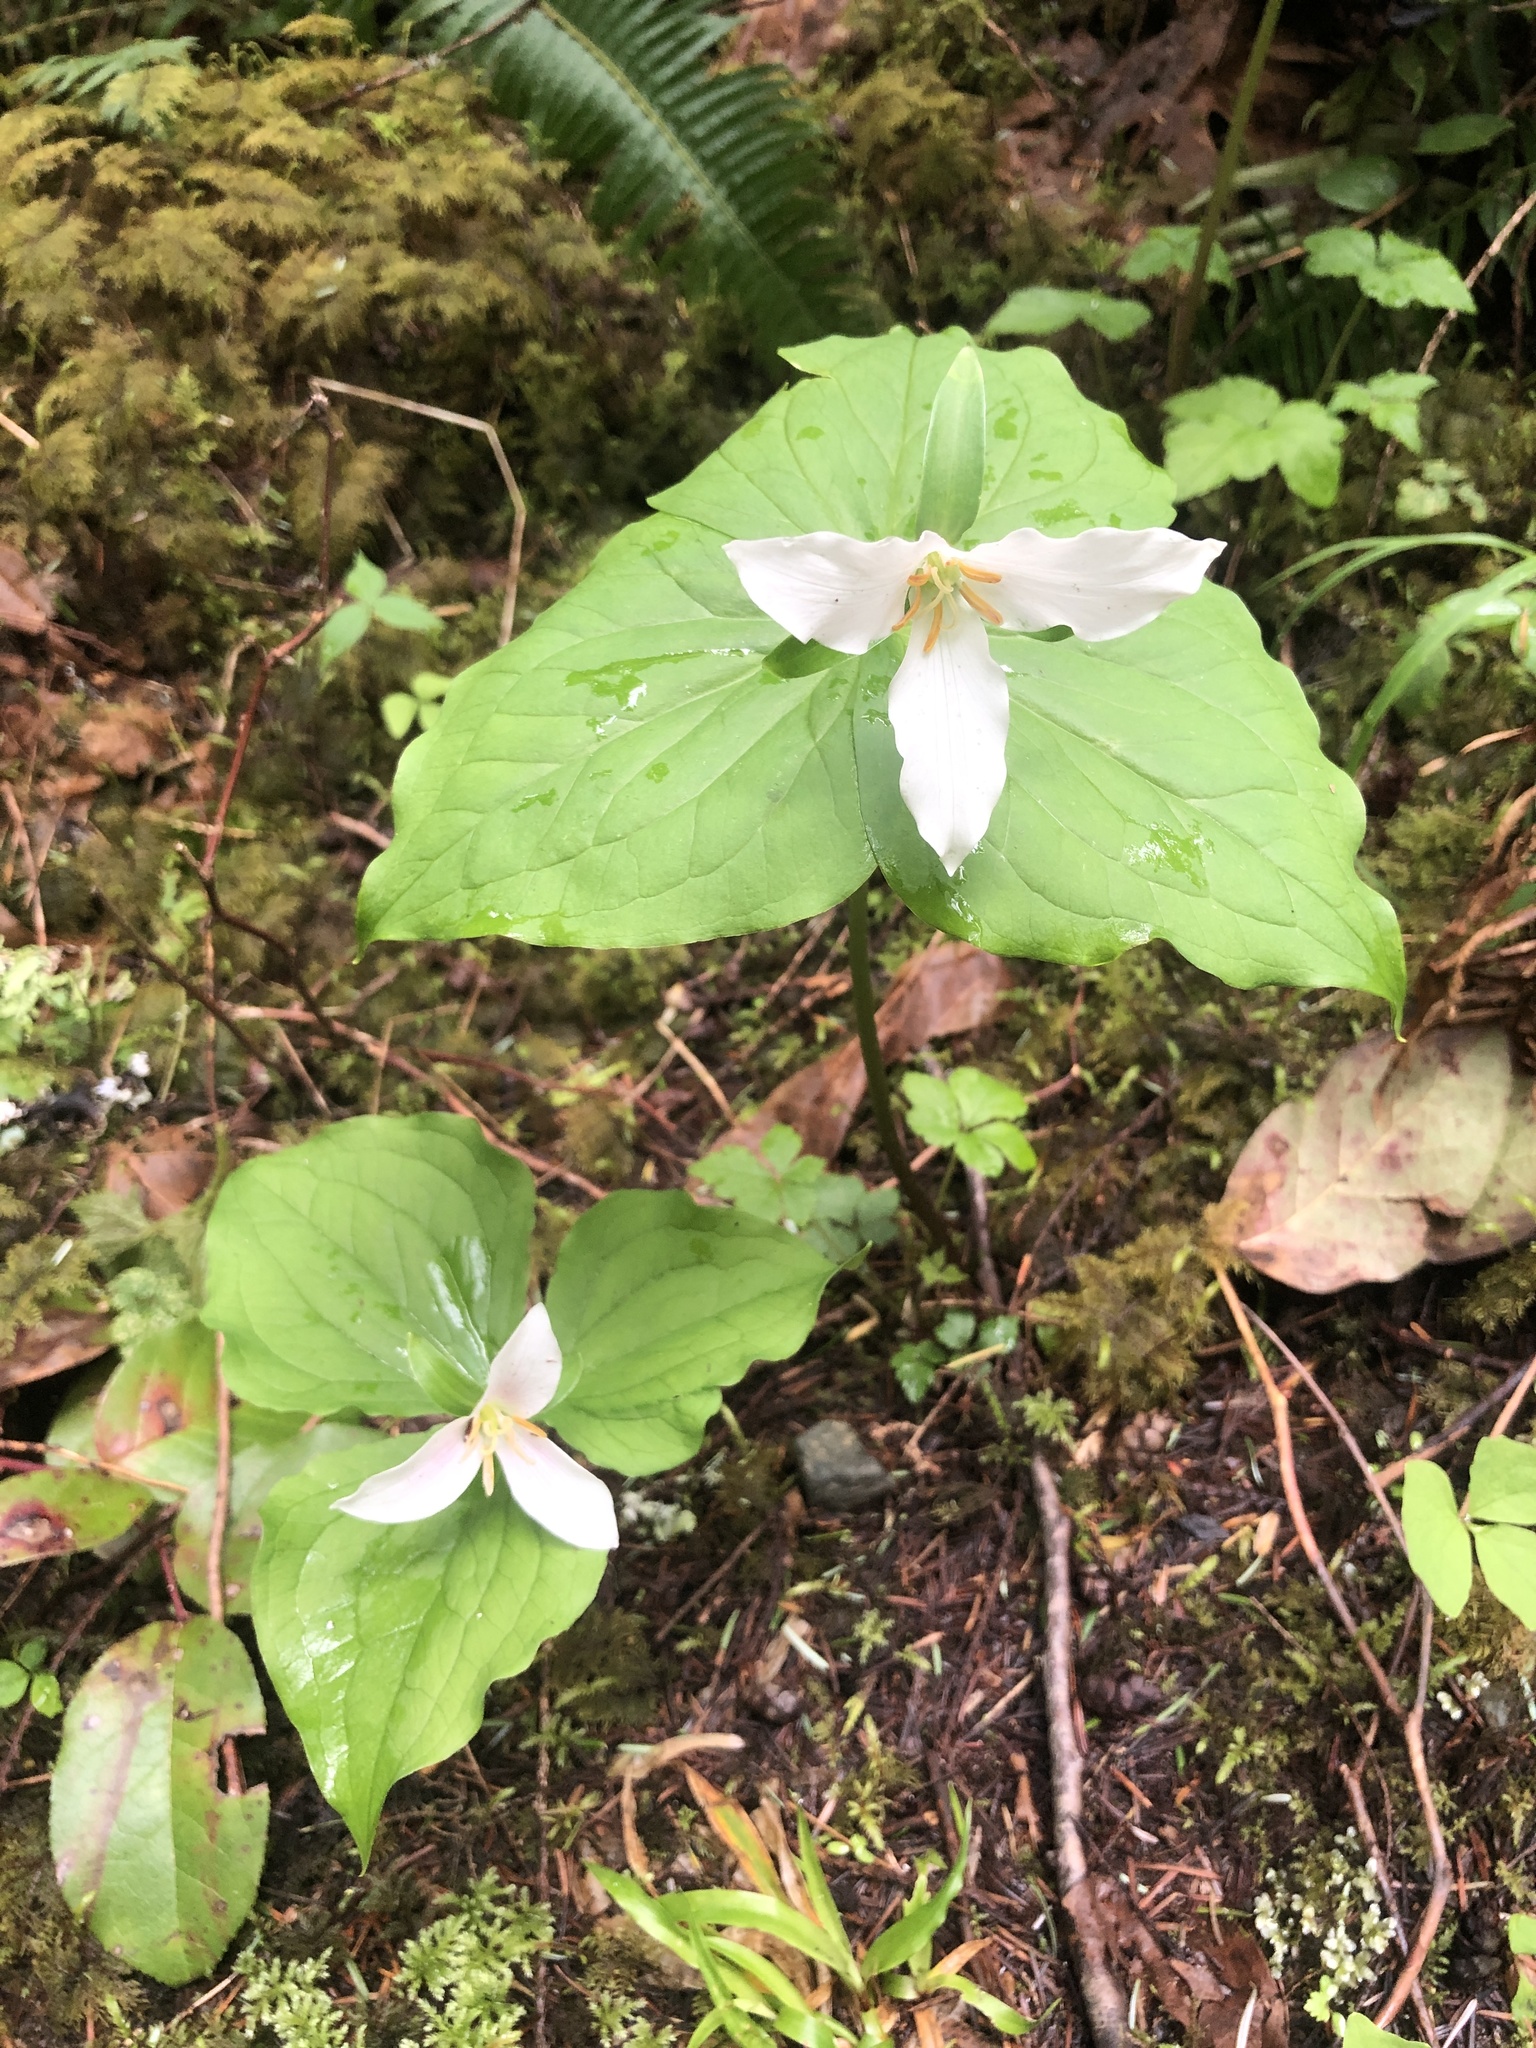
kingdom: Plantae
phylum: Tracheophyta
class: Liliopsida
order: Liliales
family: Melanthiaceae
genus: Trillium
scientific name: Trillium ovatum
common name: Pacific trillium
